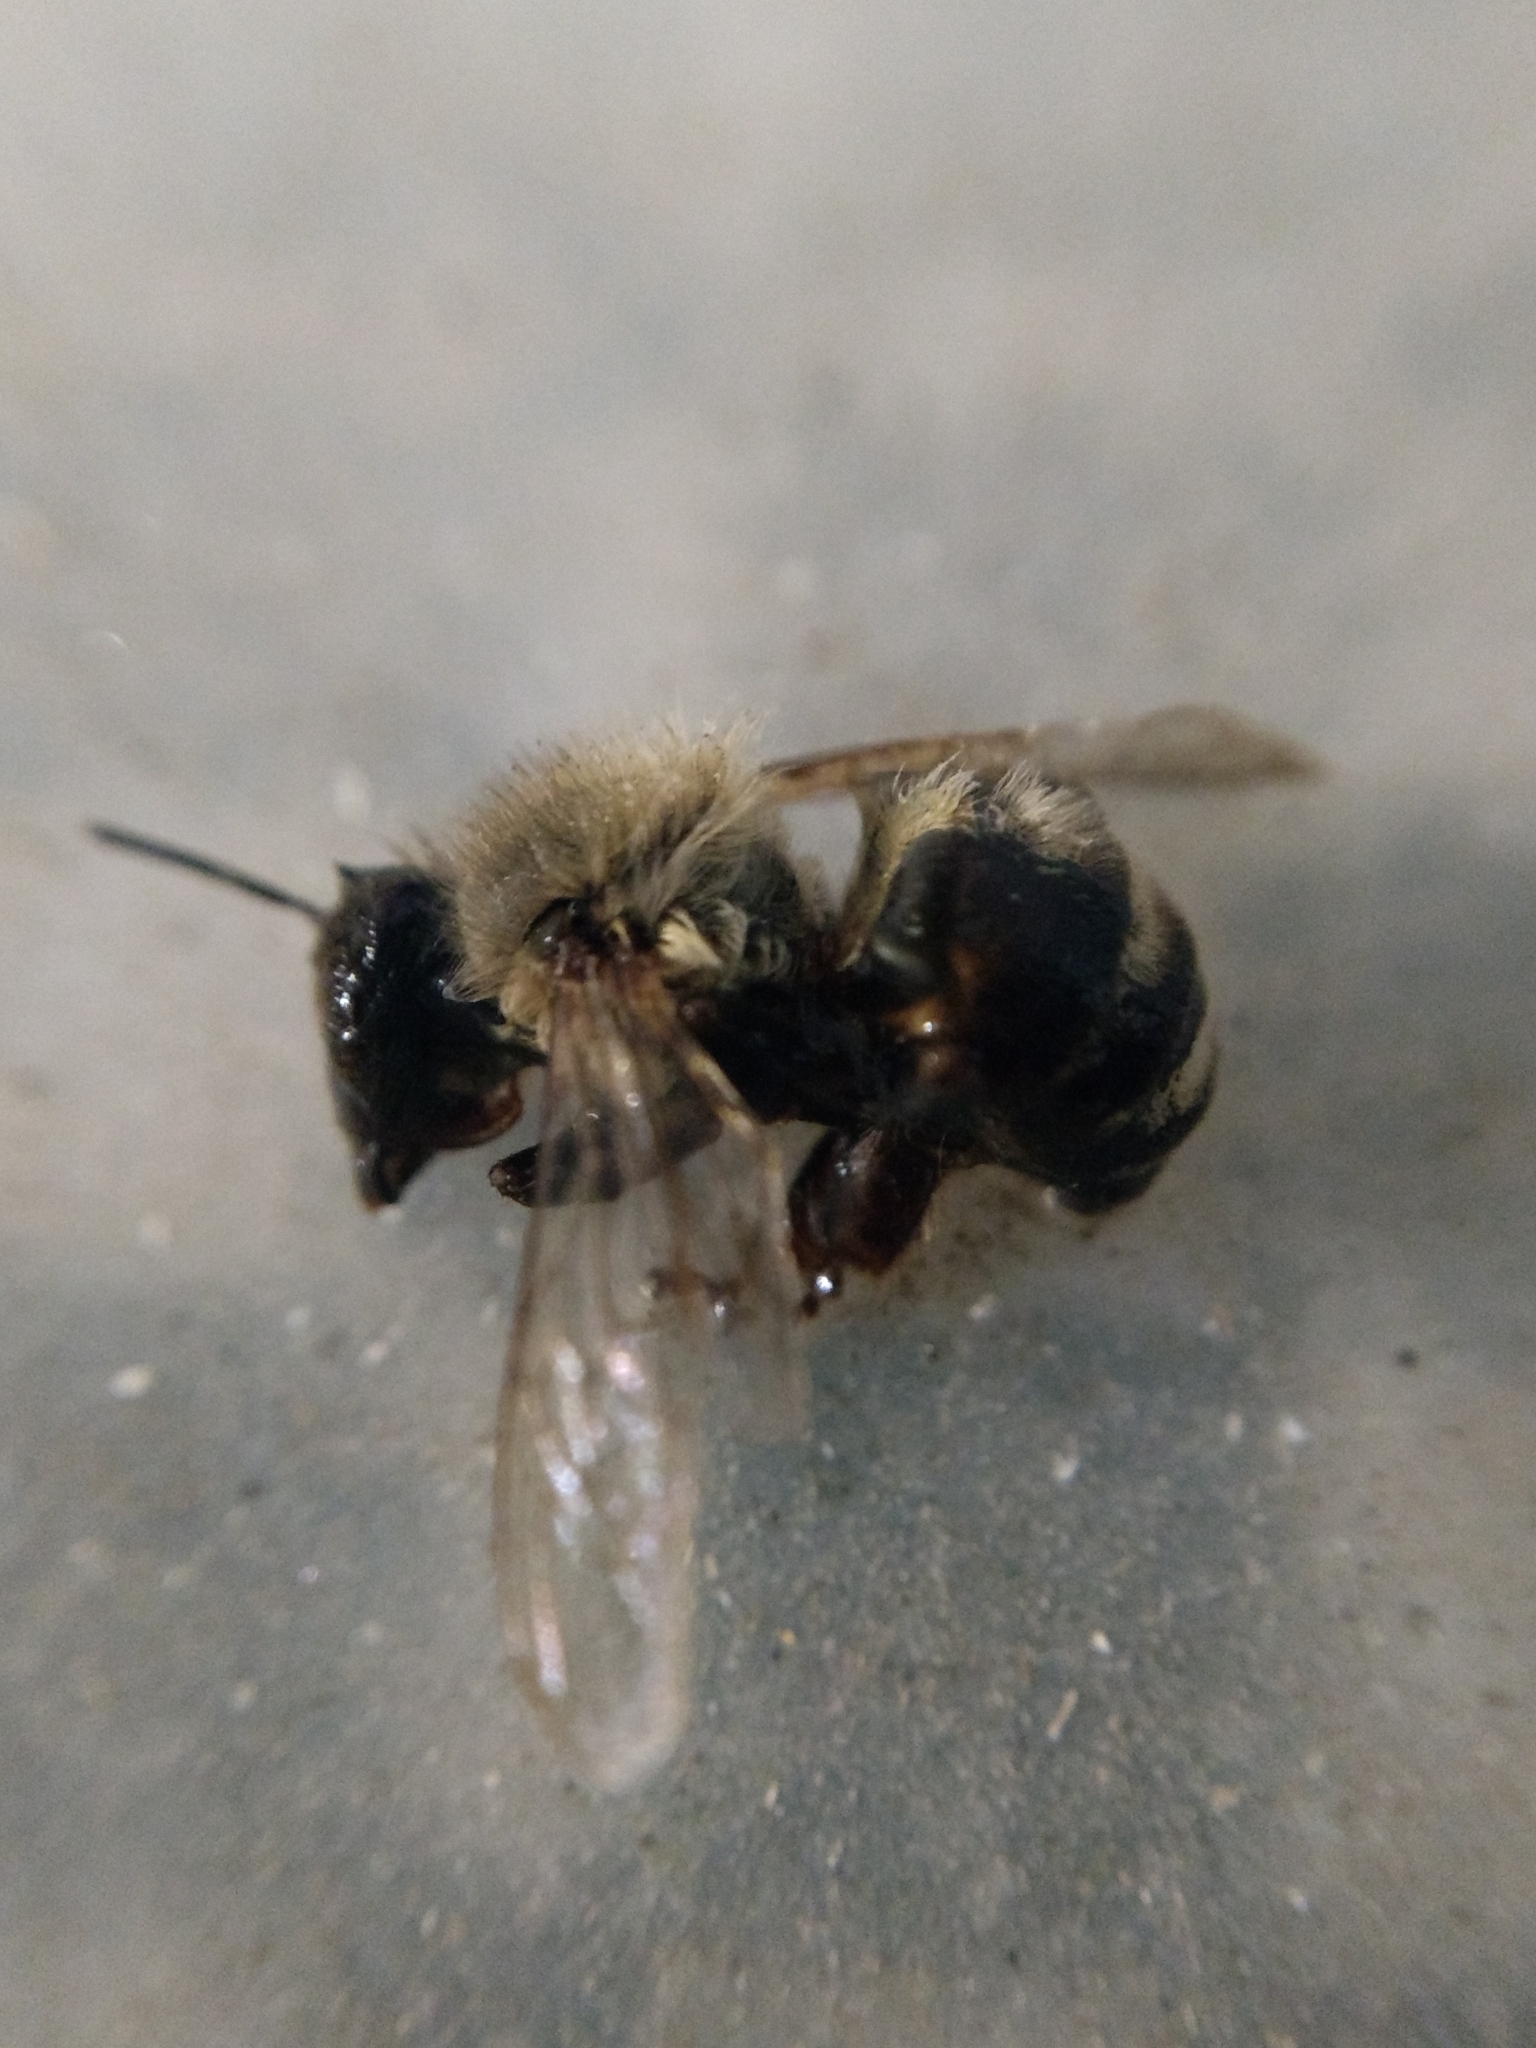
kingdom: Animalia
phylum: Arthropoda
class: Insecta
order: Hymenoptera
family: Apidae
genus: Apis
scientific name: Apis mellifera
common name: Honey bee
